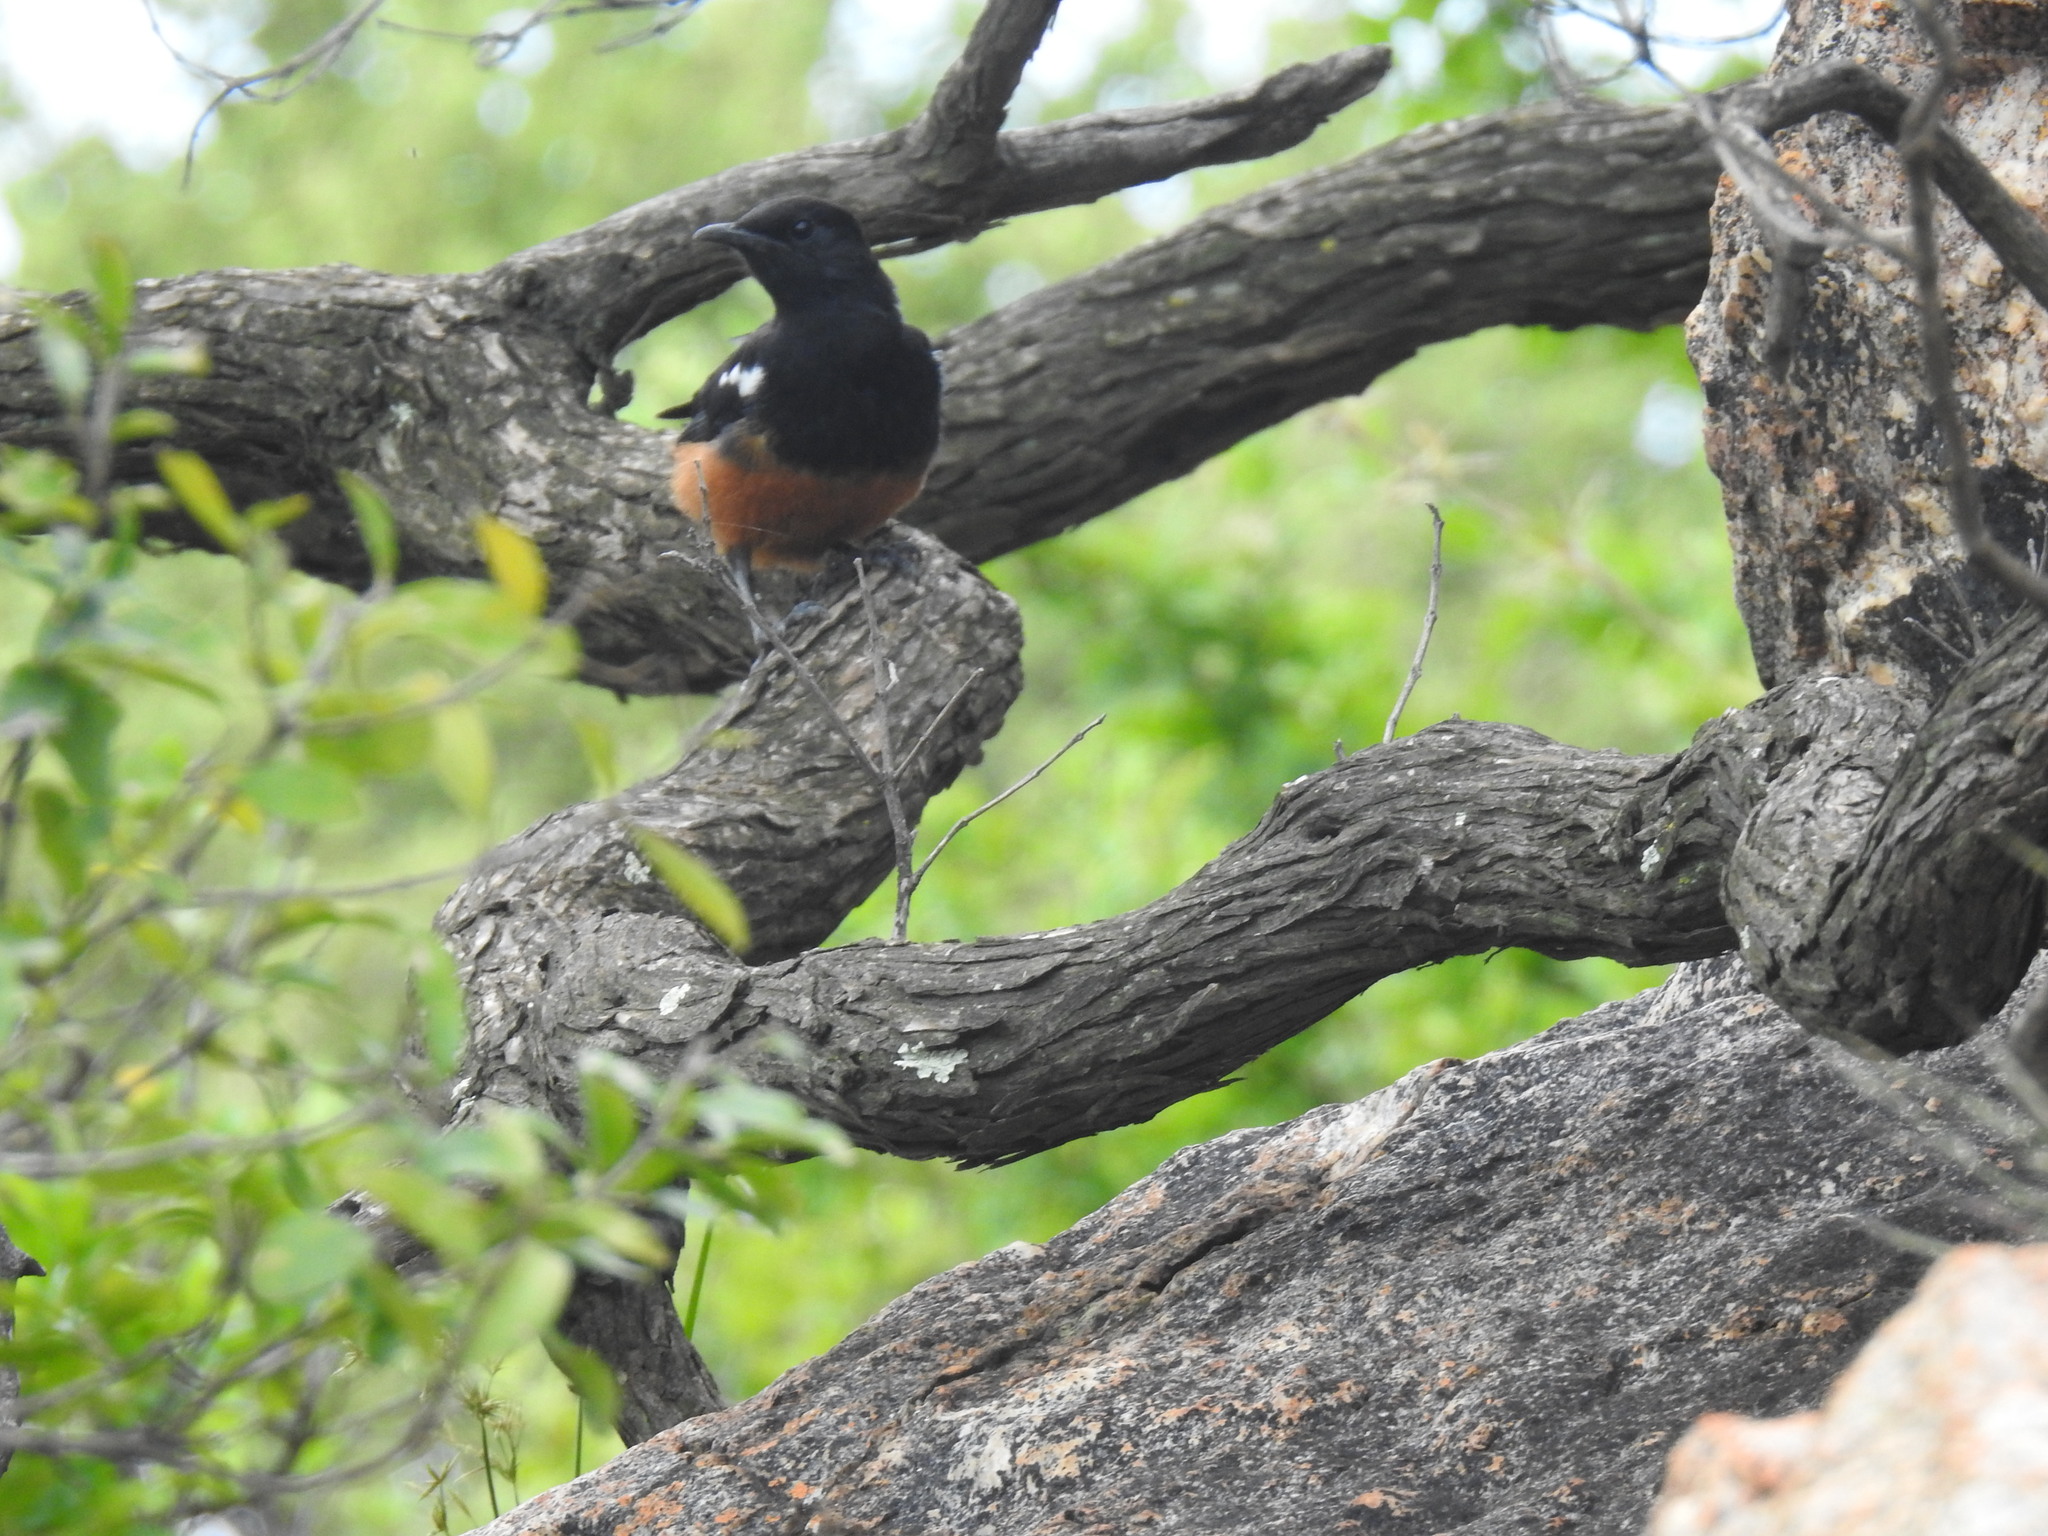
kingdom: Animalia
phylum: Chordata
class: Aves
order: Passeriformes
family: Muscicapidae
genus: Thamnolaea
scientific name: Thamnolaea cinnamomeiventris
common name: Mocking cliff chat
